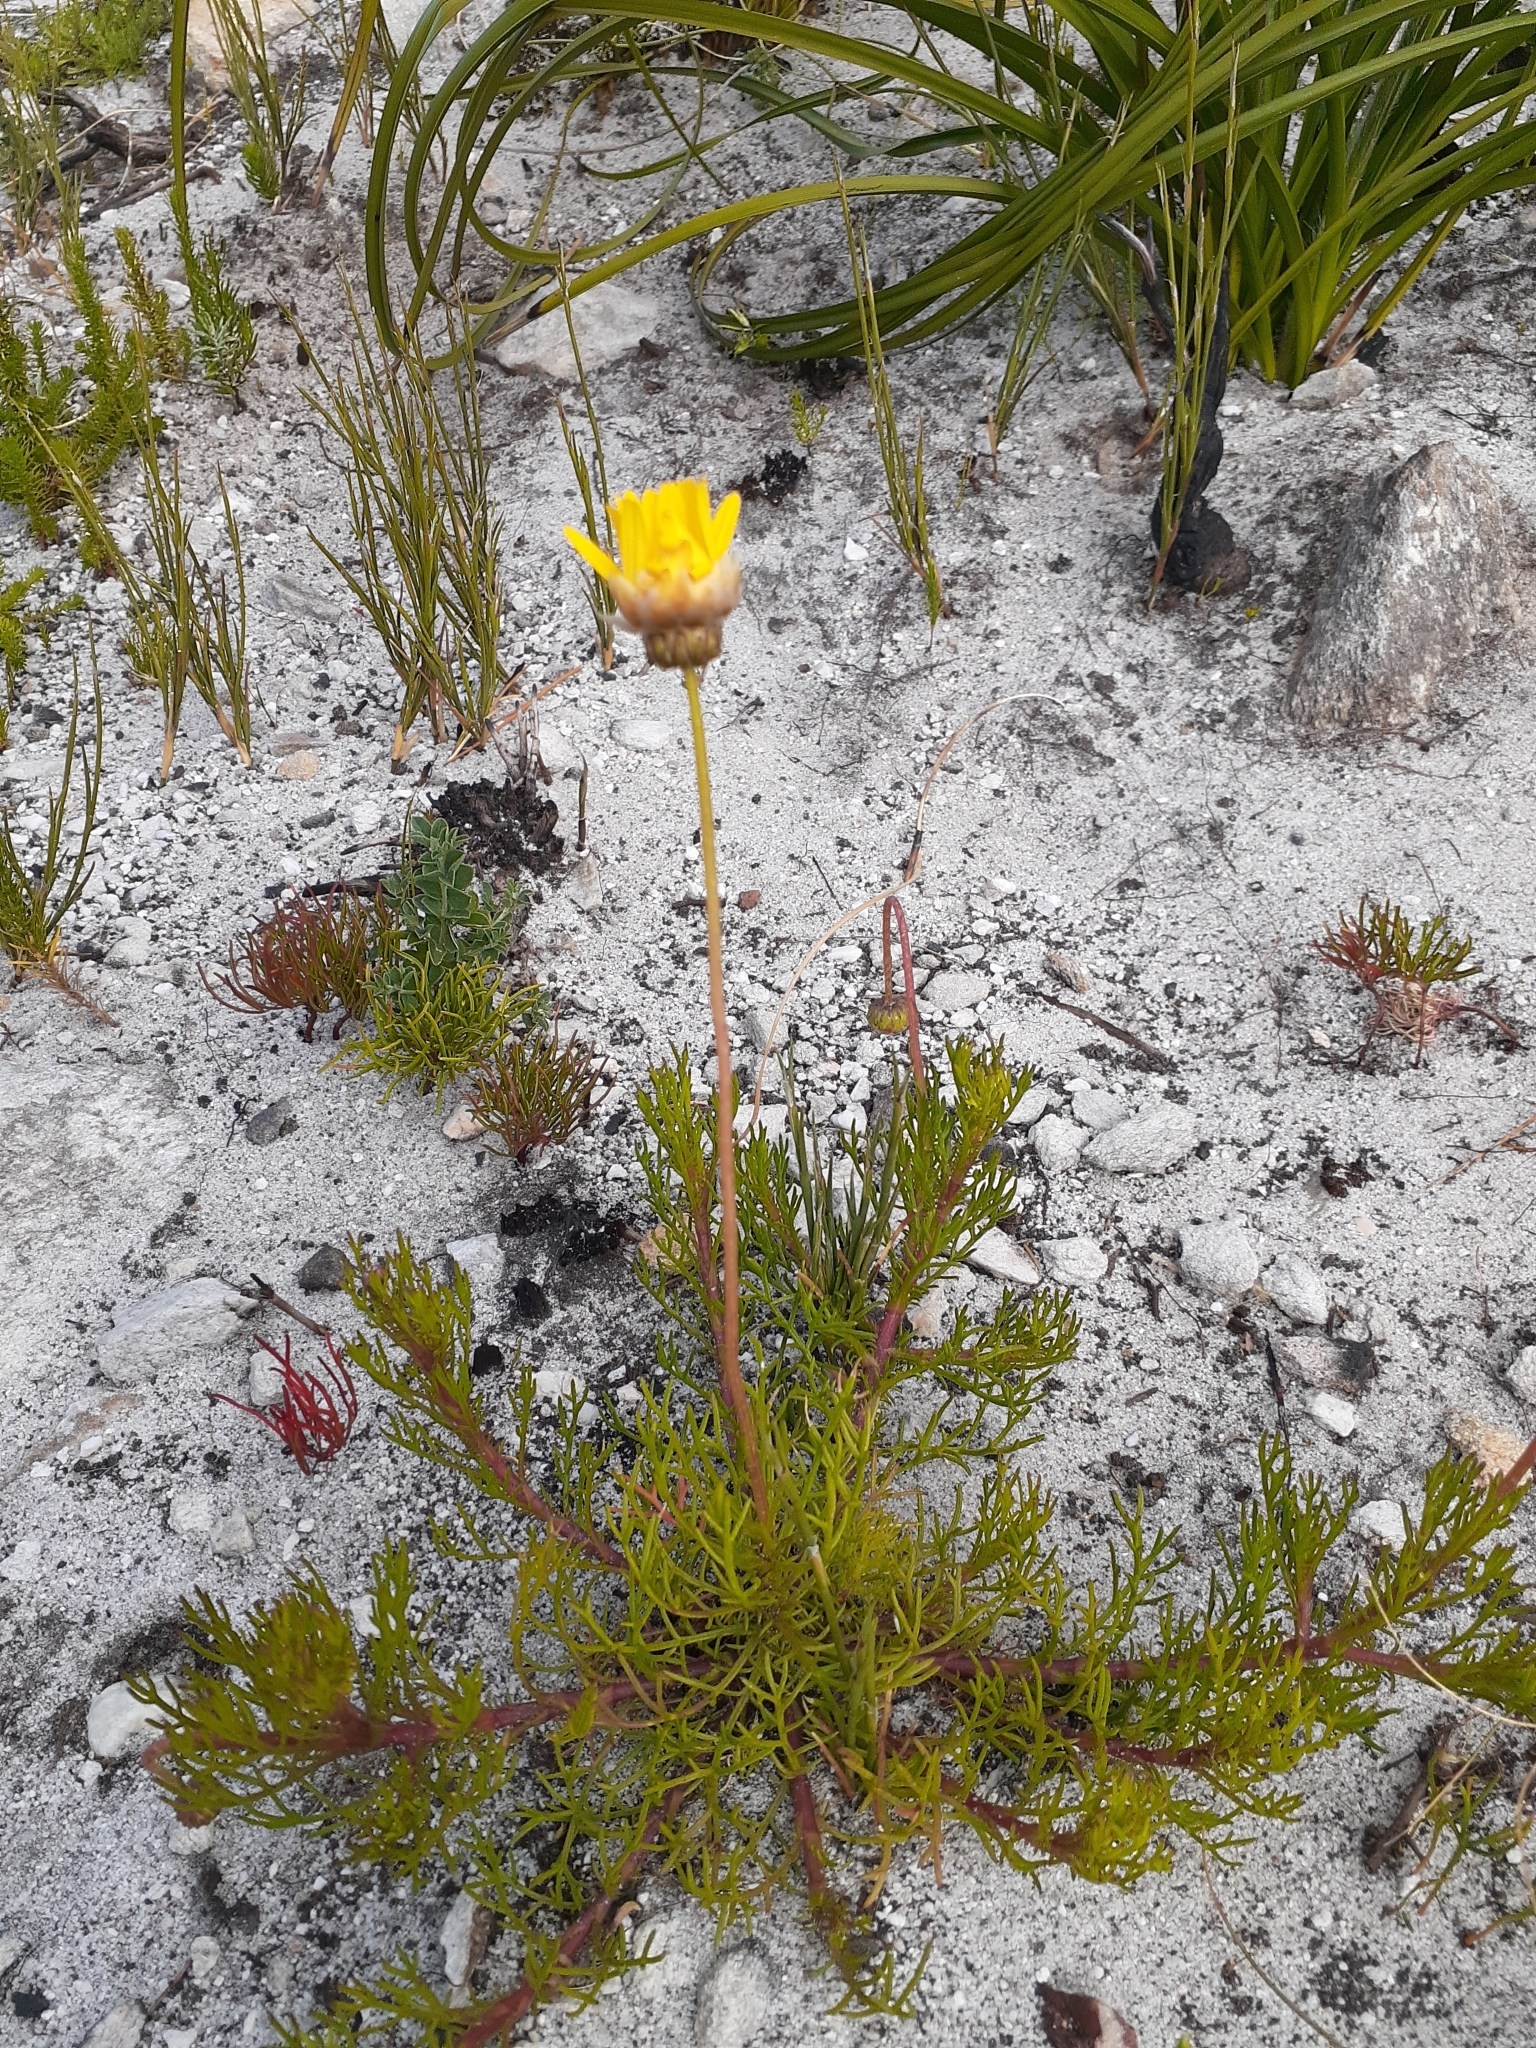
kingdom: Plantae
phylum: Tracheophyta
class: Magnoliopsida
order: Asterales
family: Asteraceae
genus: Ursinia
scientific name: Ursinia paleacea
